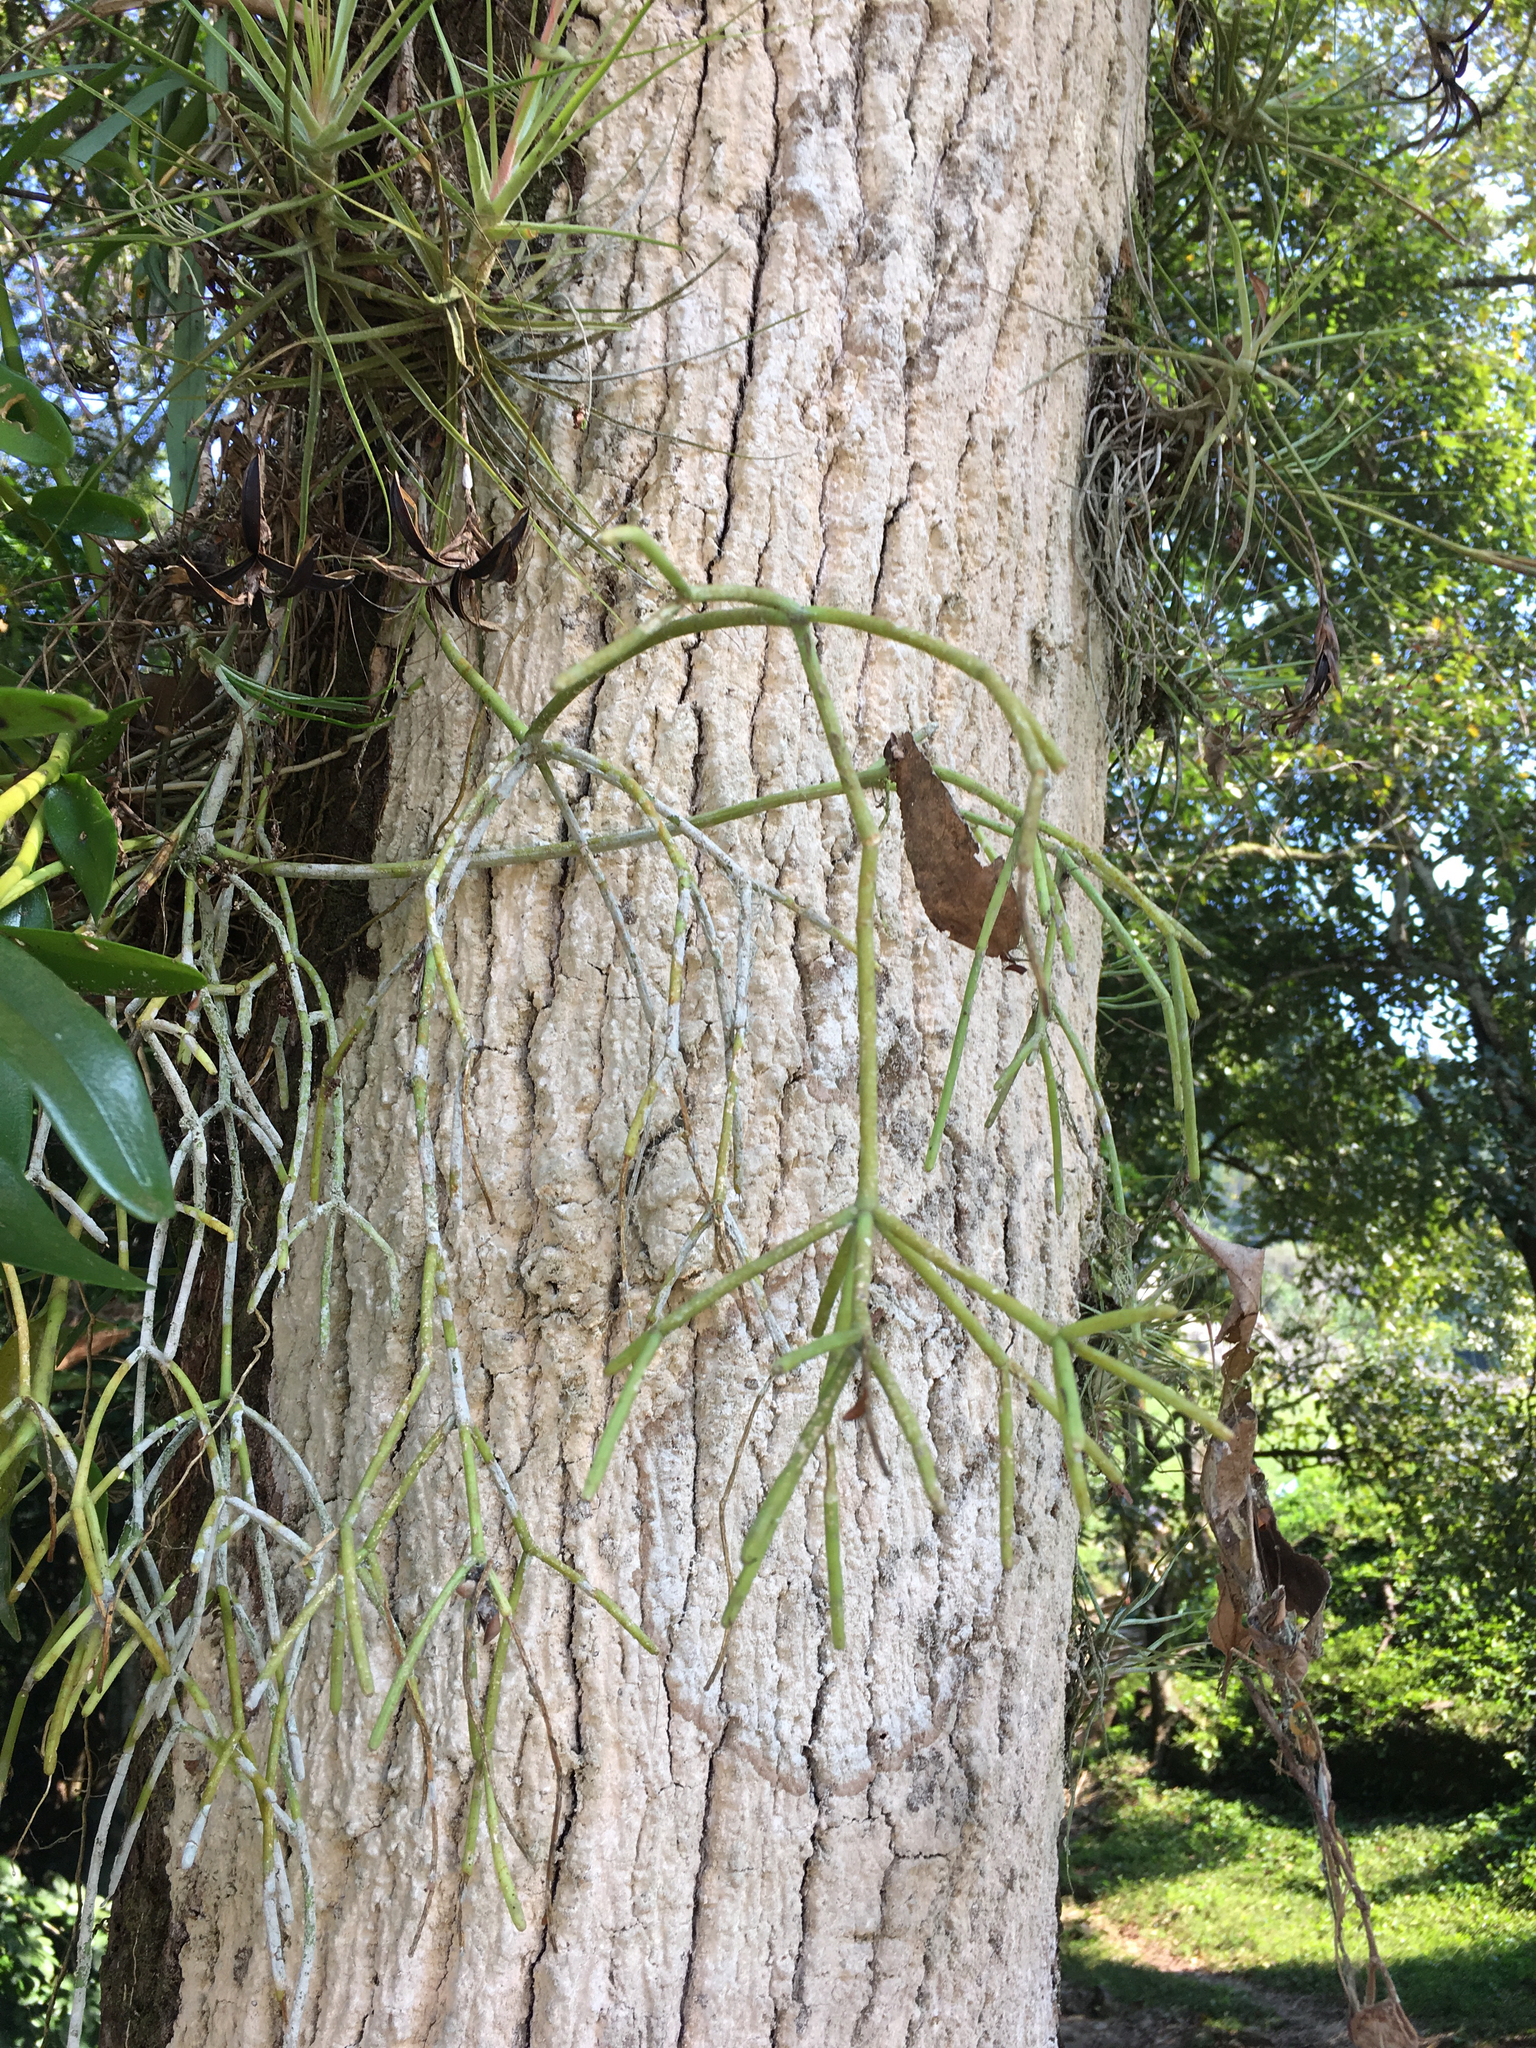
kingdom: Plantae
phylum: Tracheophyta
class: Magnoliopsida
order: Caryophyllales
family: Cactaceae
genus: Rhipsalis
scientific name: Rhipsalis baccifera
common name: Mistletoe cactus
